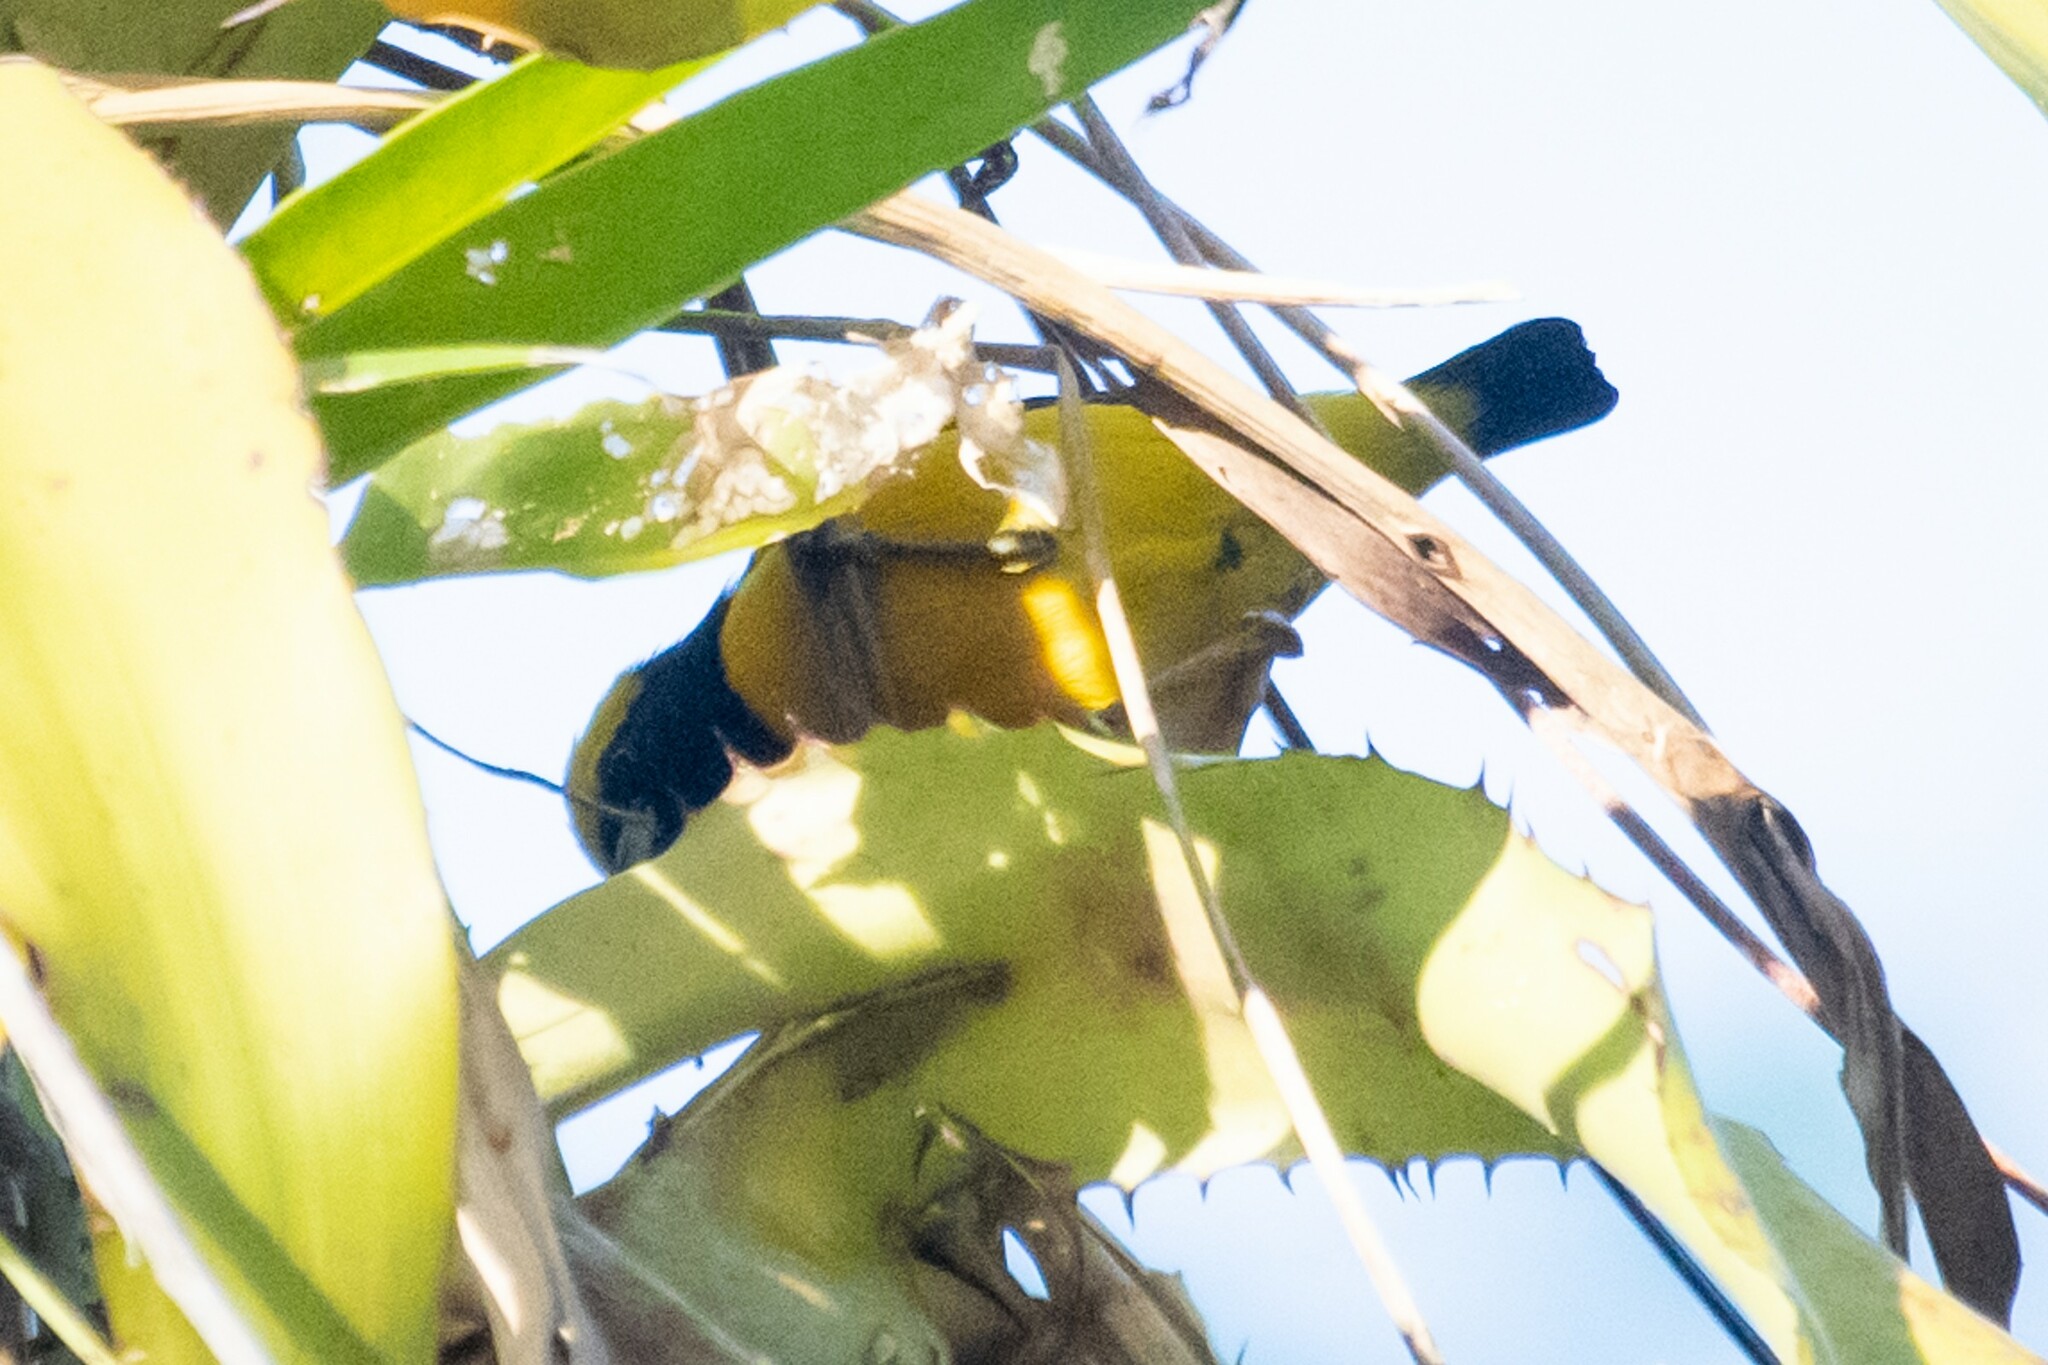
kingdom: Animalia
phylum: Chordata
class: Aves
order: Passeriformes
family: Fringillidae
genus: Euphonia
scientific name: Euphonia luteicapilla
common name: Yellow-crowned euphonia
